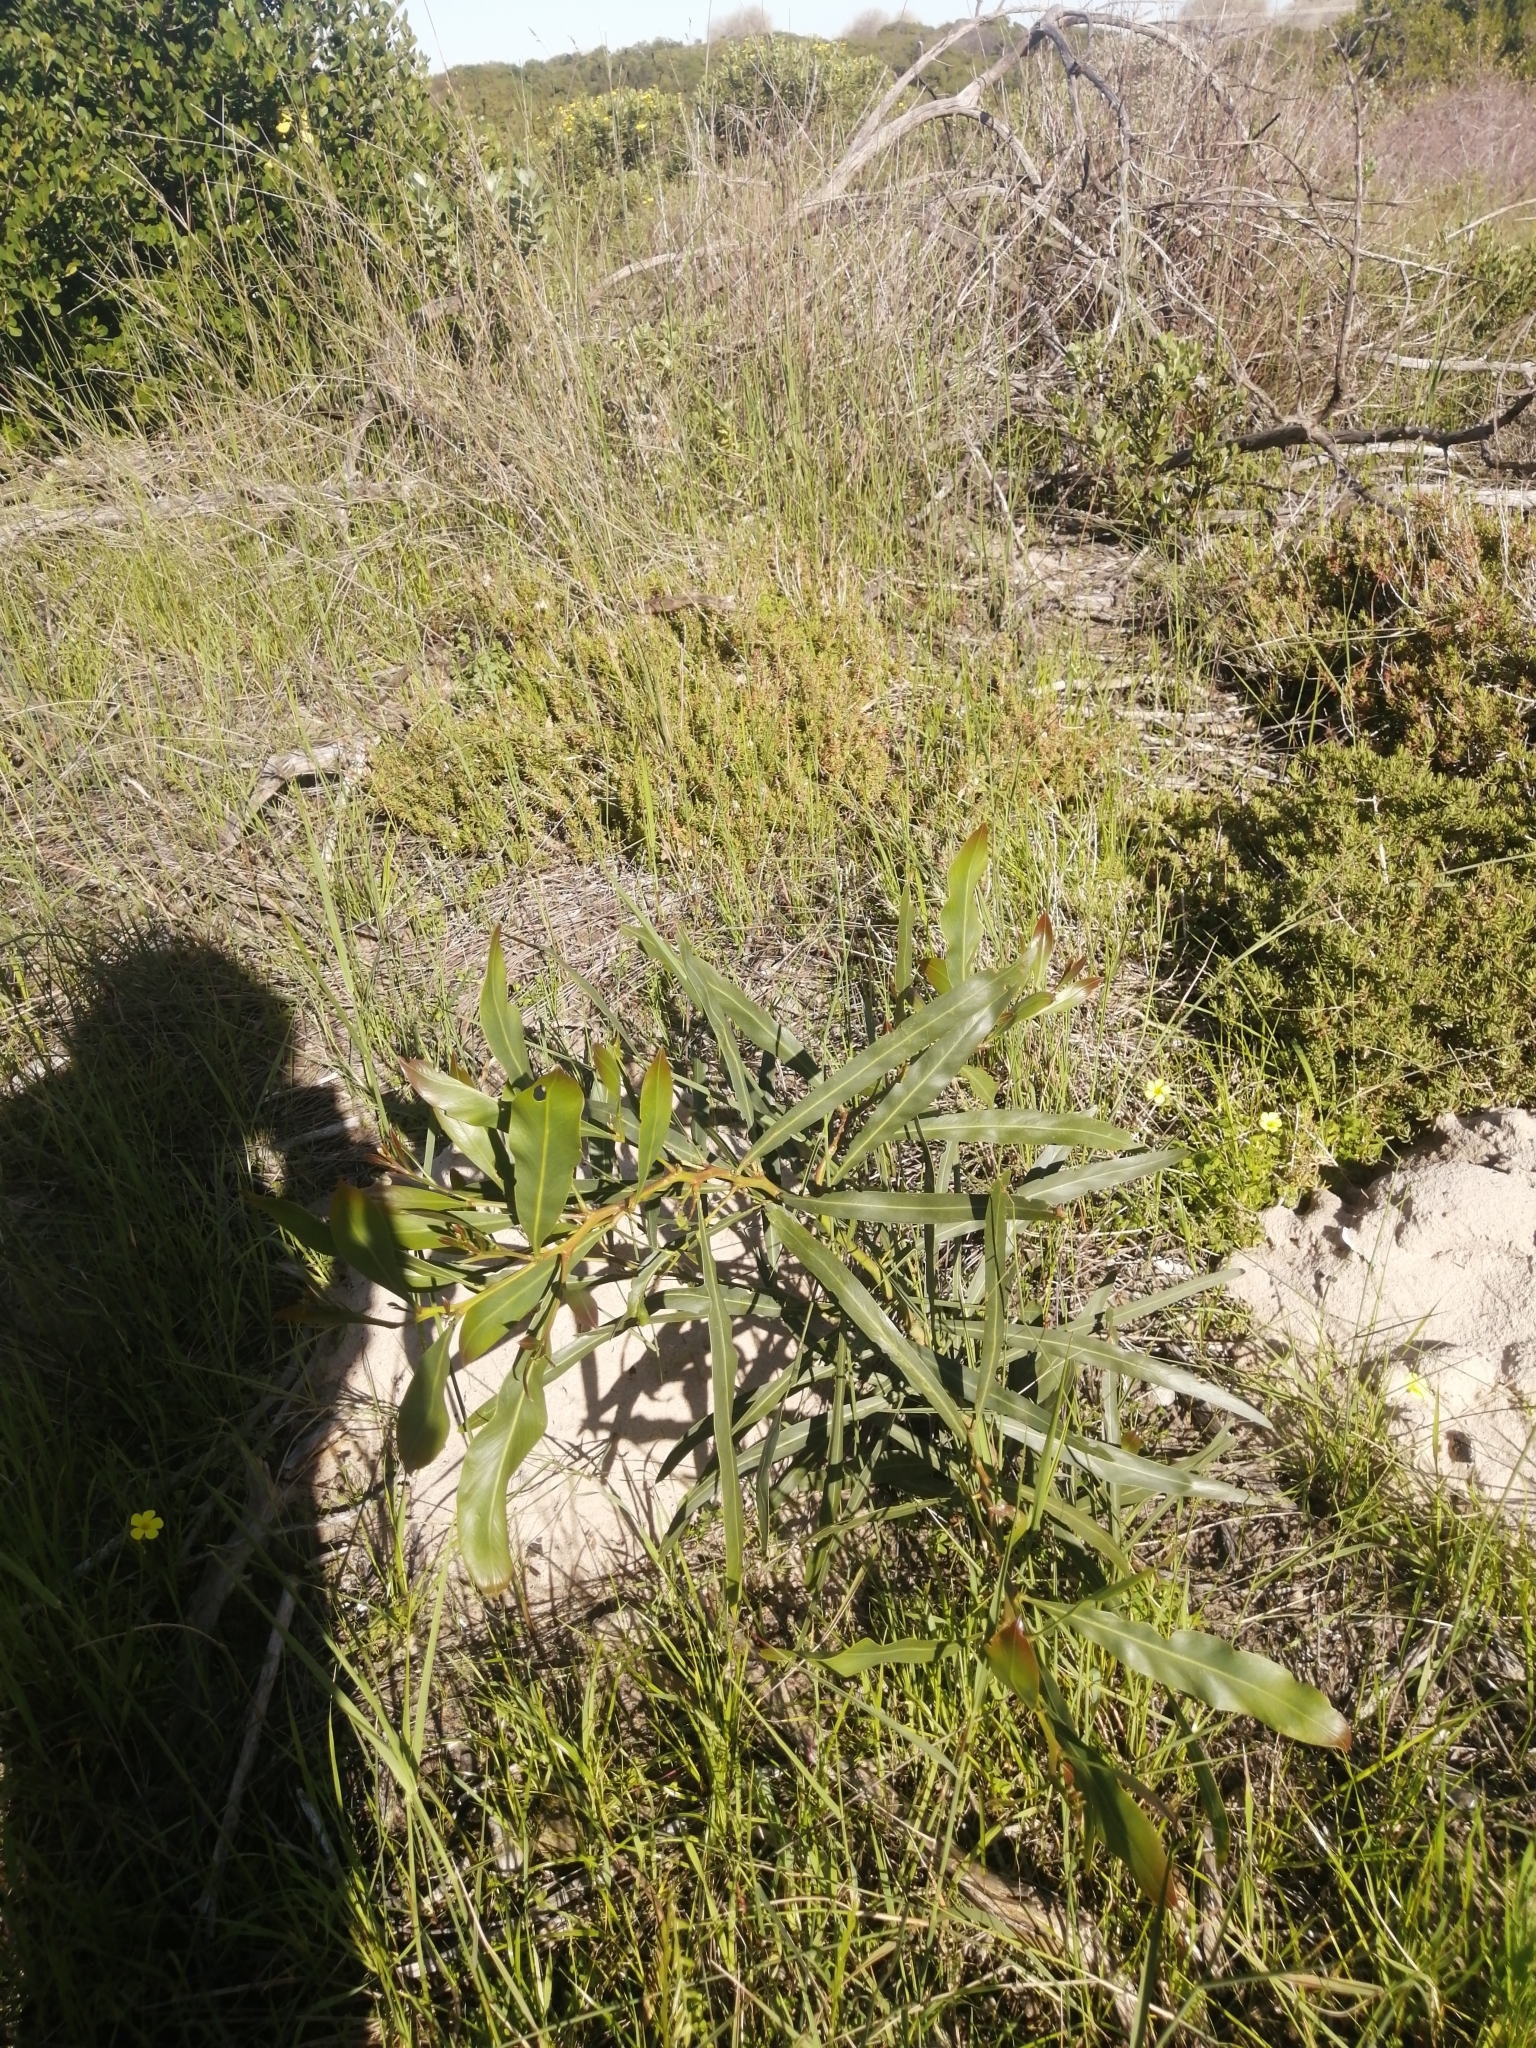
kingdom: Plantae
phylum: Tracheophyta
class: Magnoliopsida
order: Fabales
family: Fabaceae
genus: Acacia
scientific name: Acacia saligna
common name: Orange wattle
